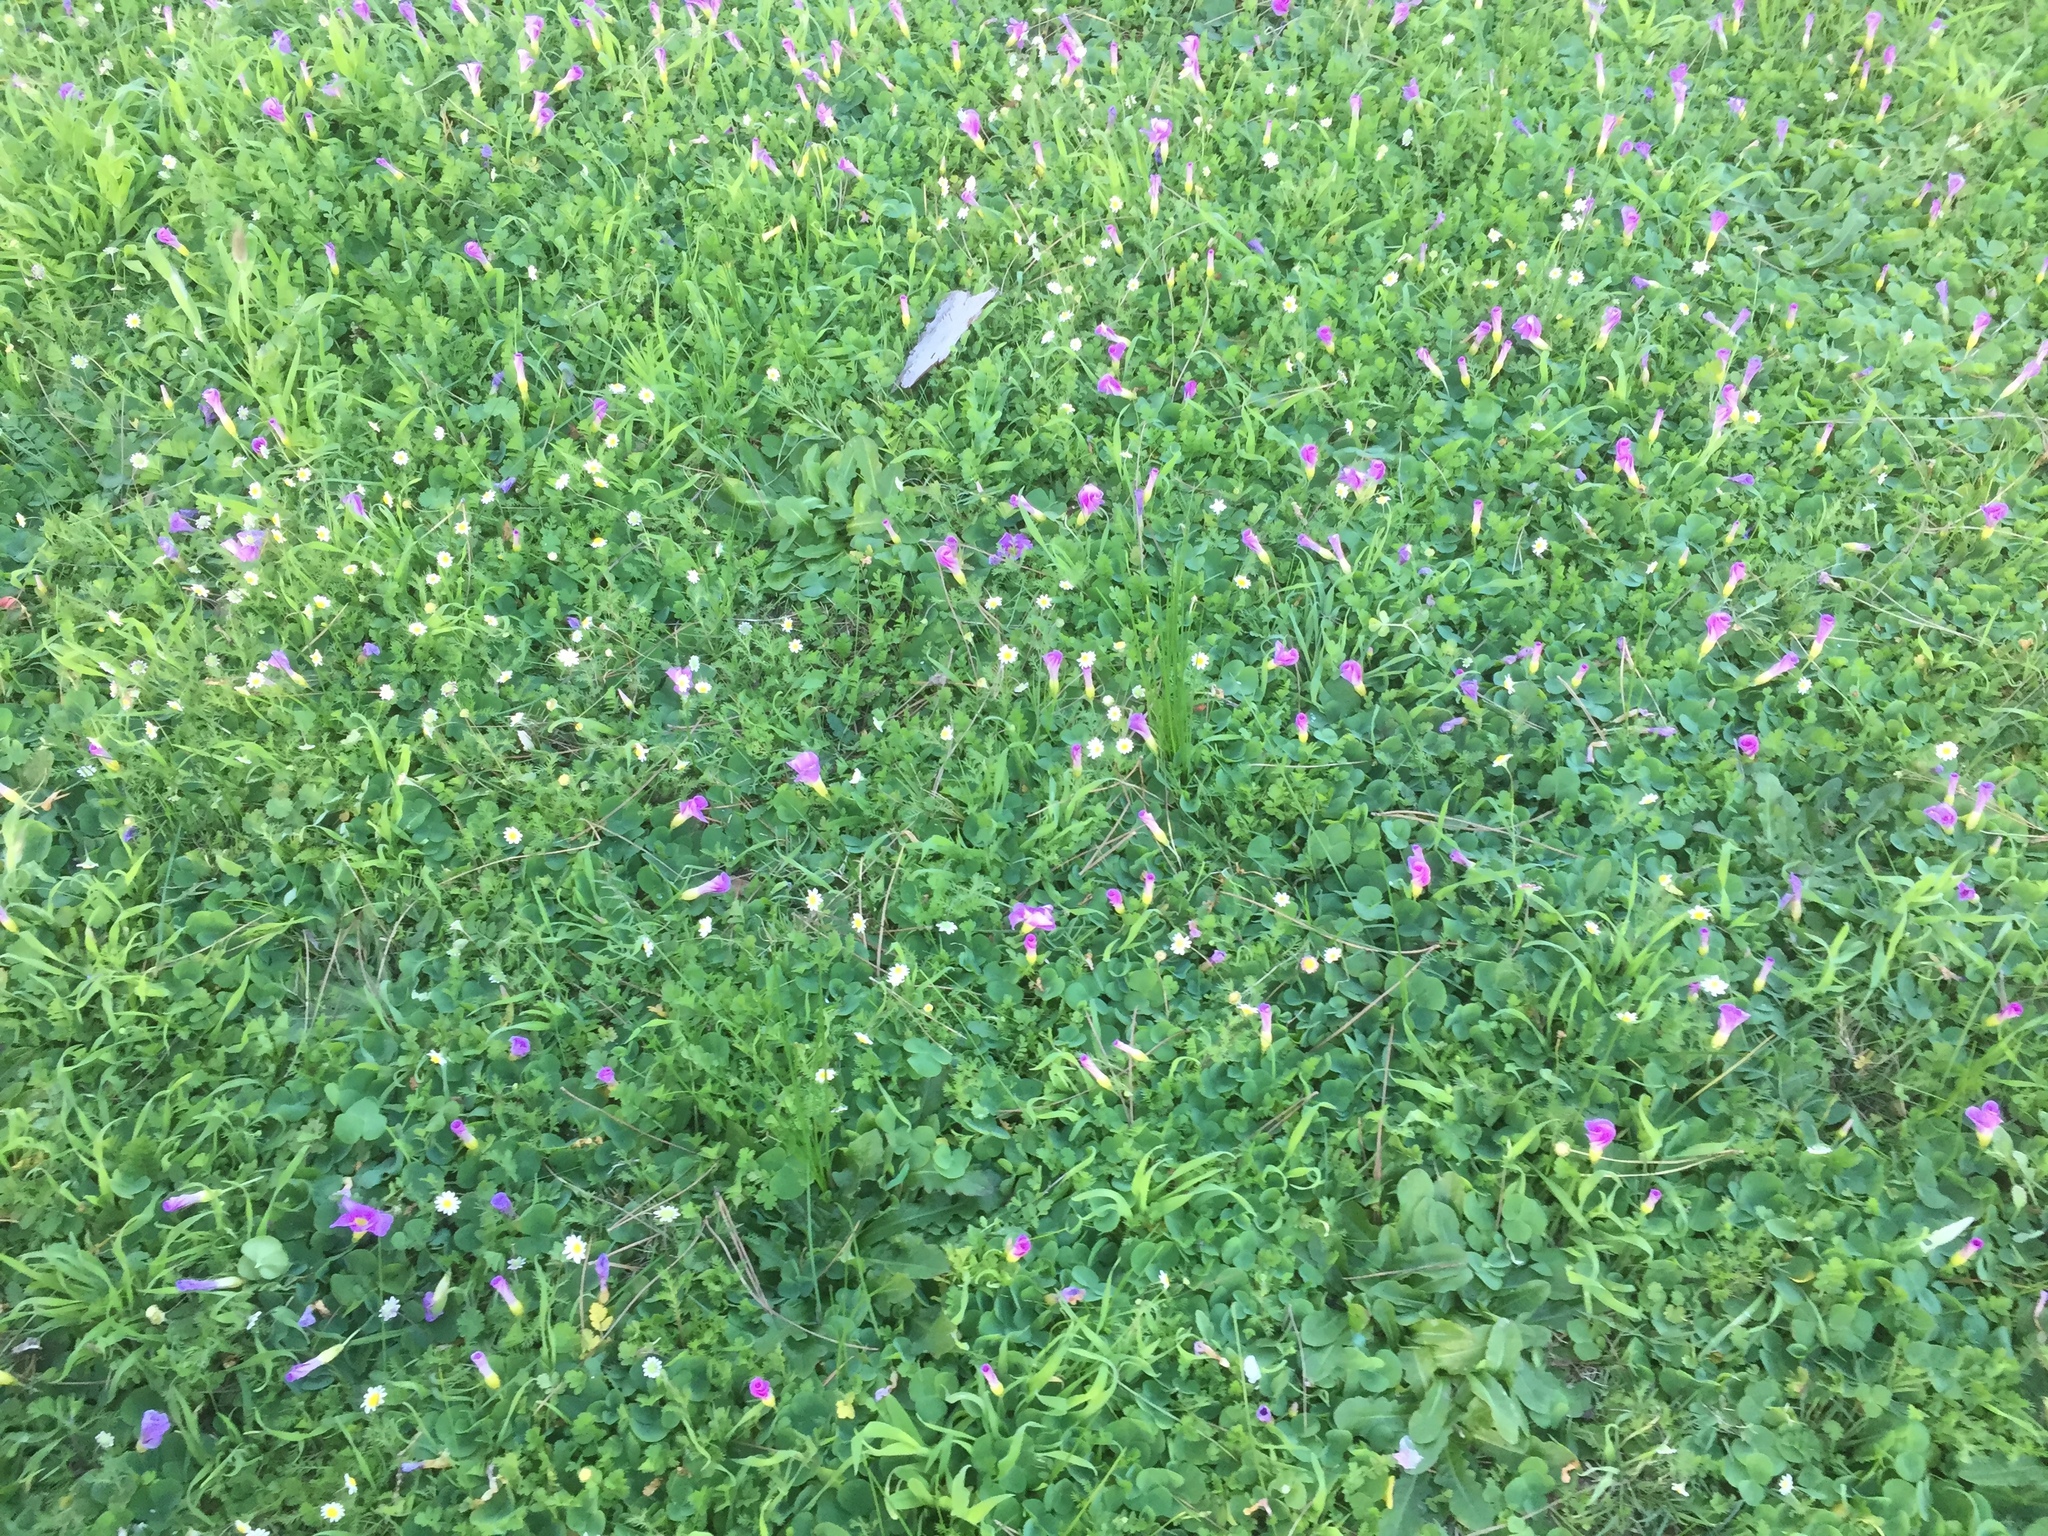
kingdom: Plantae
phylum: Tracheophyta
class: Magnoliopsida
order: Oxalidales
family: Oxalidaceae
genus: Oxalis
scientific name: Oxalis purpurea
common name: Purple woodsorrel
